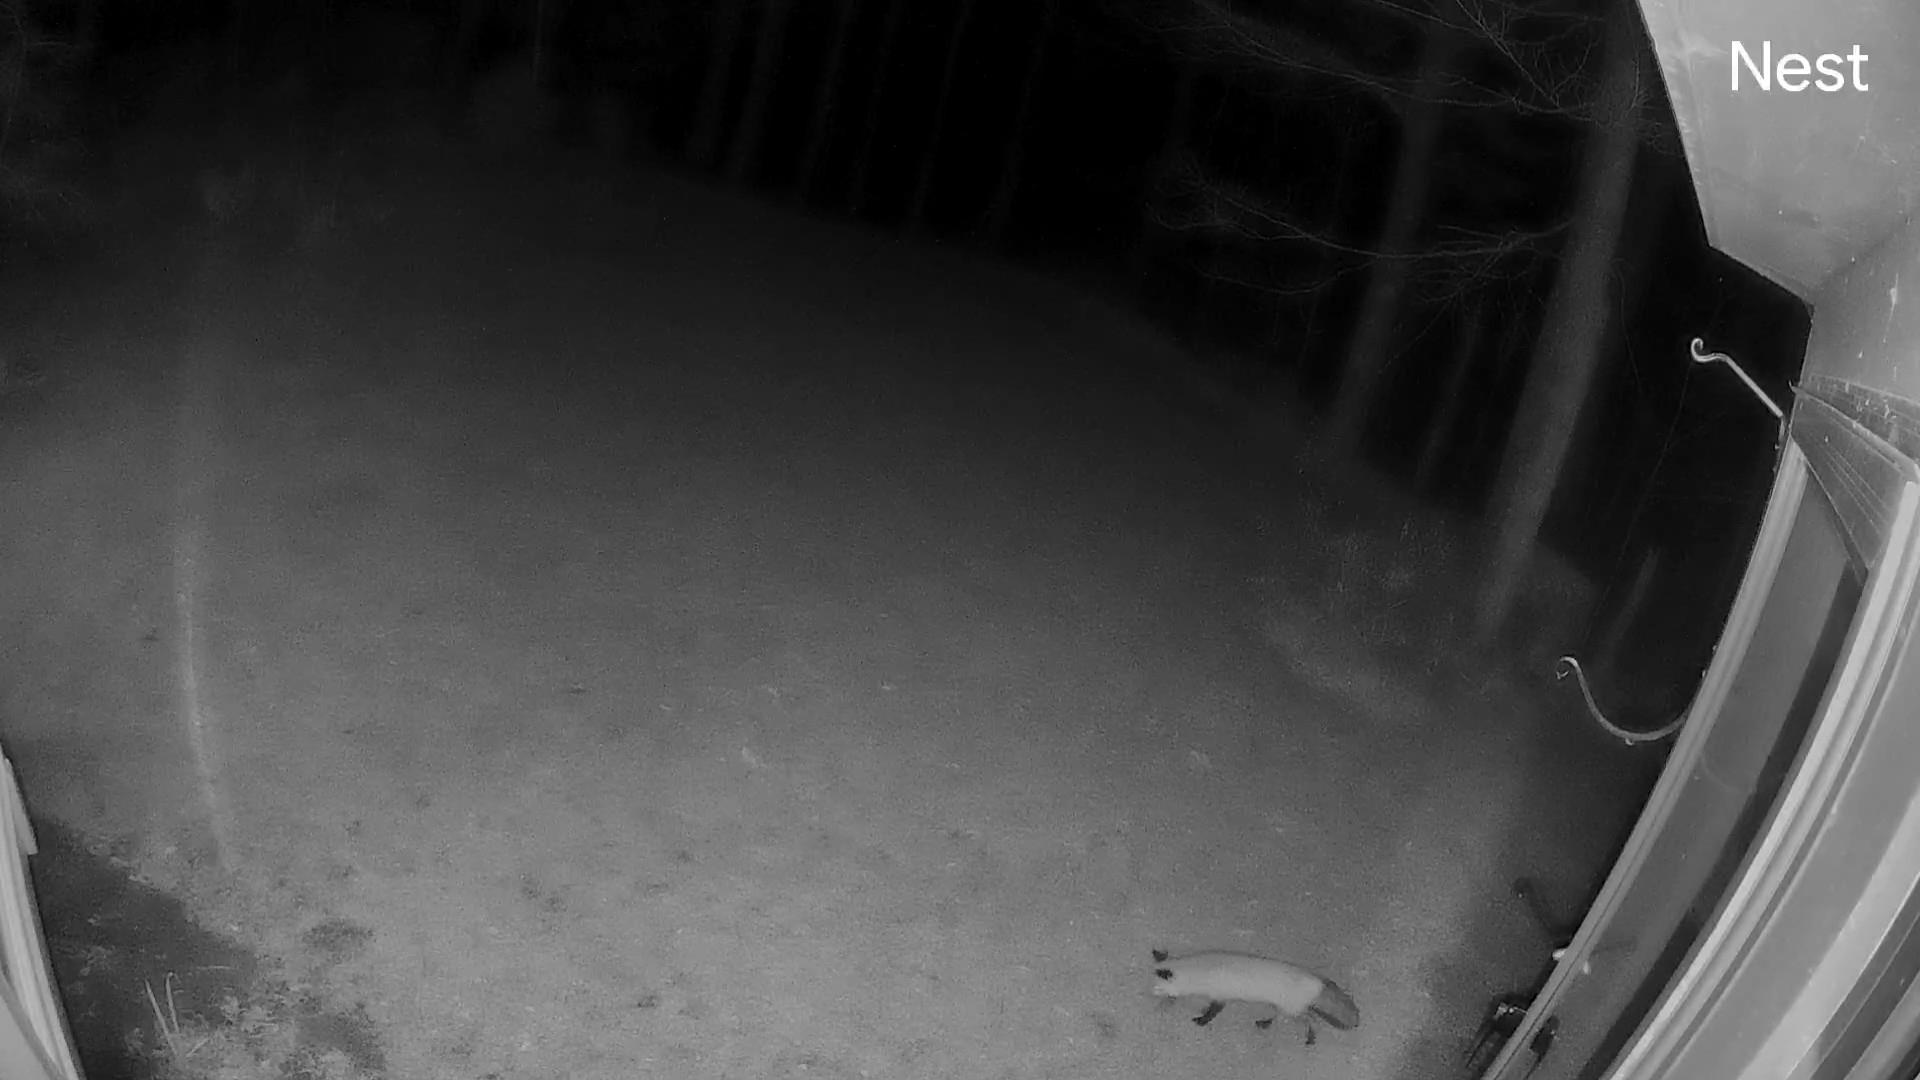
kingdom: Animalia
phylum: Chordata
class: Mammalia
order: Carnivora
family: Canidae
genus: Vulpes
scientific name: Vulpes vulpes
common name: Red fox
